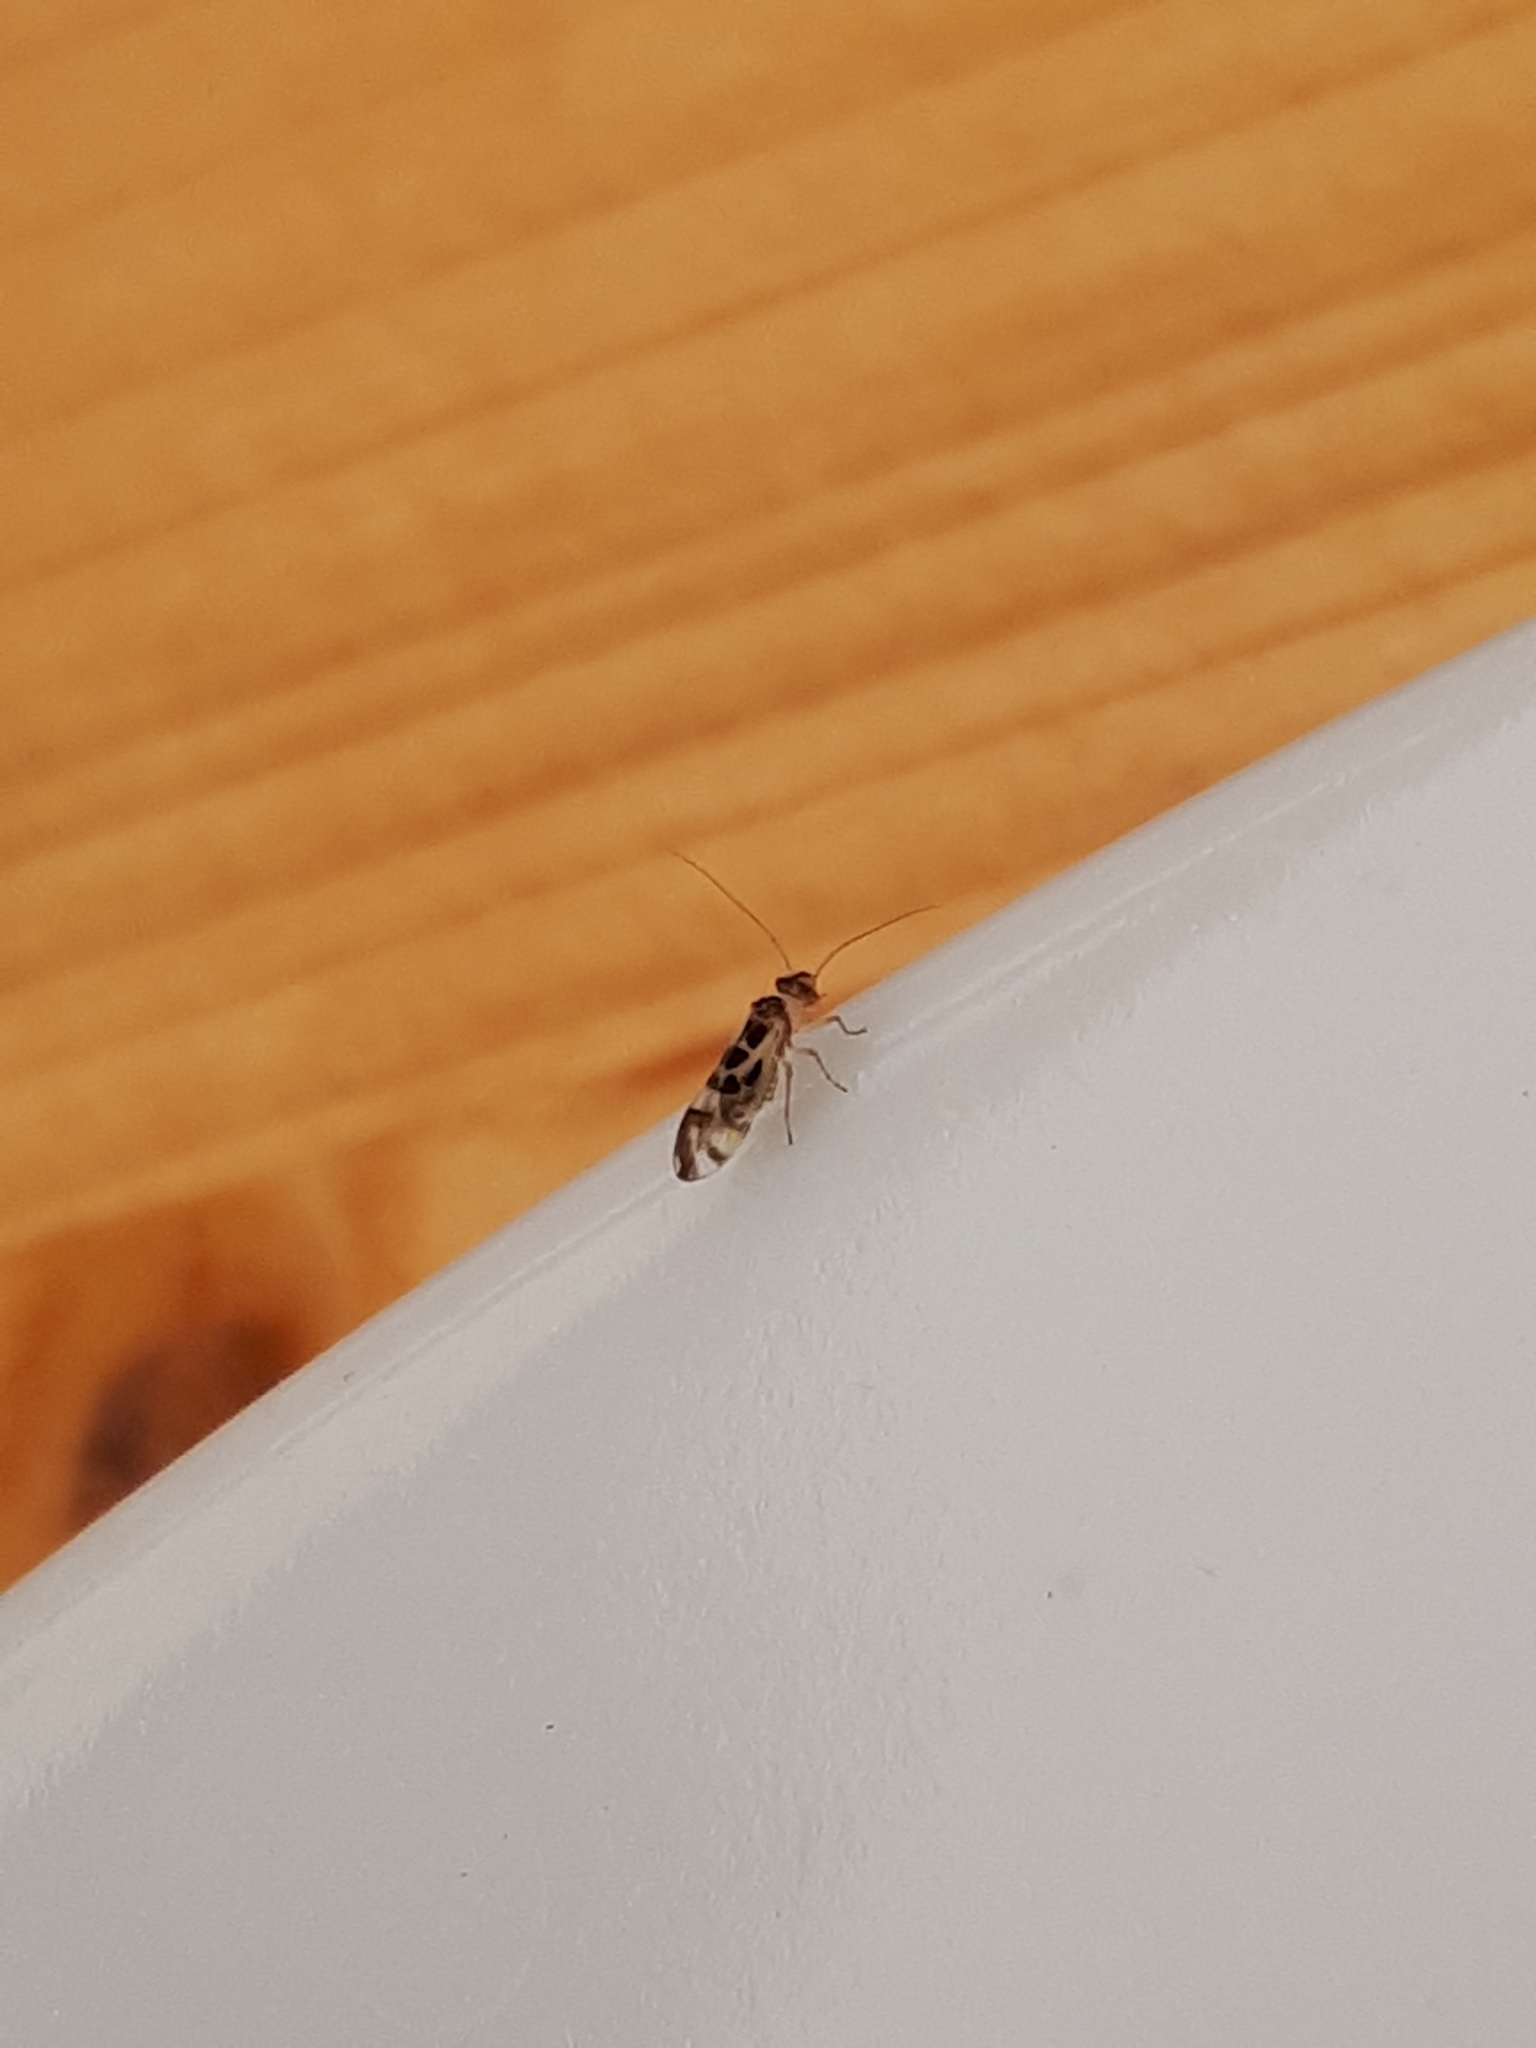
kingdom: Animalia
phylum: Arthropoda
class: Insecta
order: Psocodea
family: Stenopsocidae
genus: Graphopsocus
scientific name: Graphopsocus cruciatus
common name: Lizard bark louse
